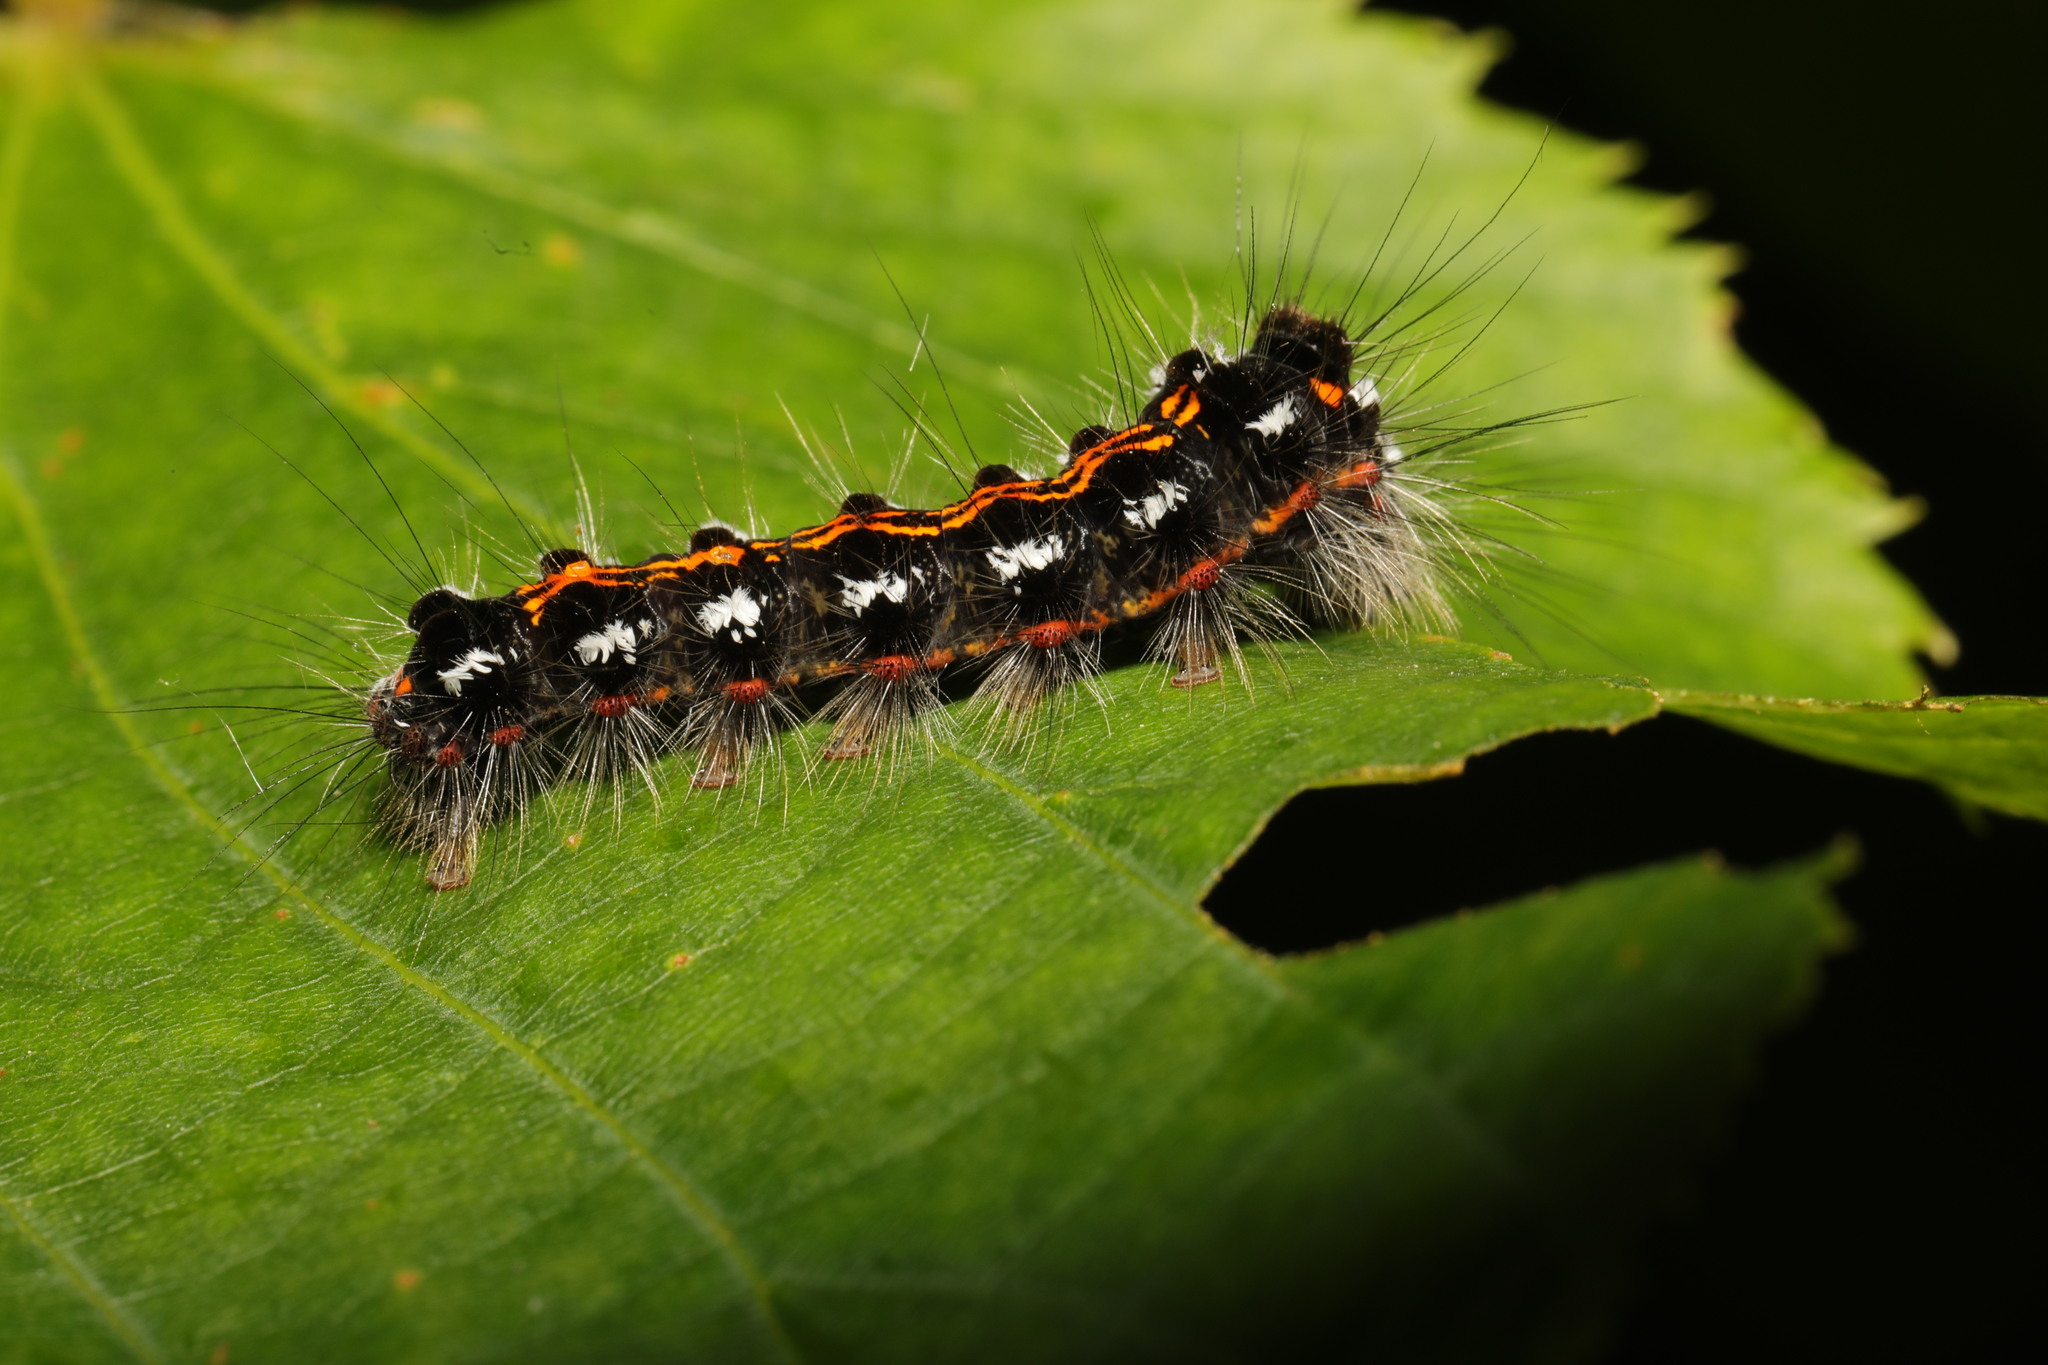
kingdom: Animalia
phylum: Arthropoda
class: Insecta
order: Lepidoptera
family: Erebidae
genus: Sphrageidus
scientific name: Sphrageidus similis
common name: Yellow-tail
